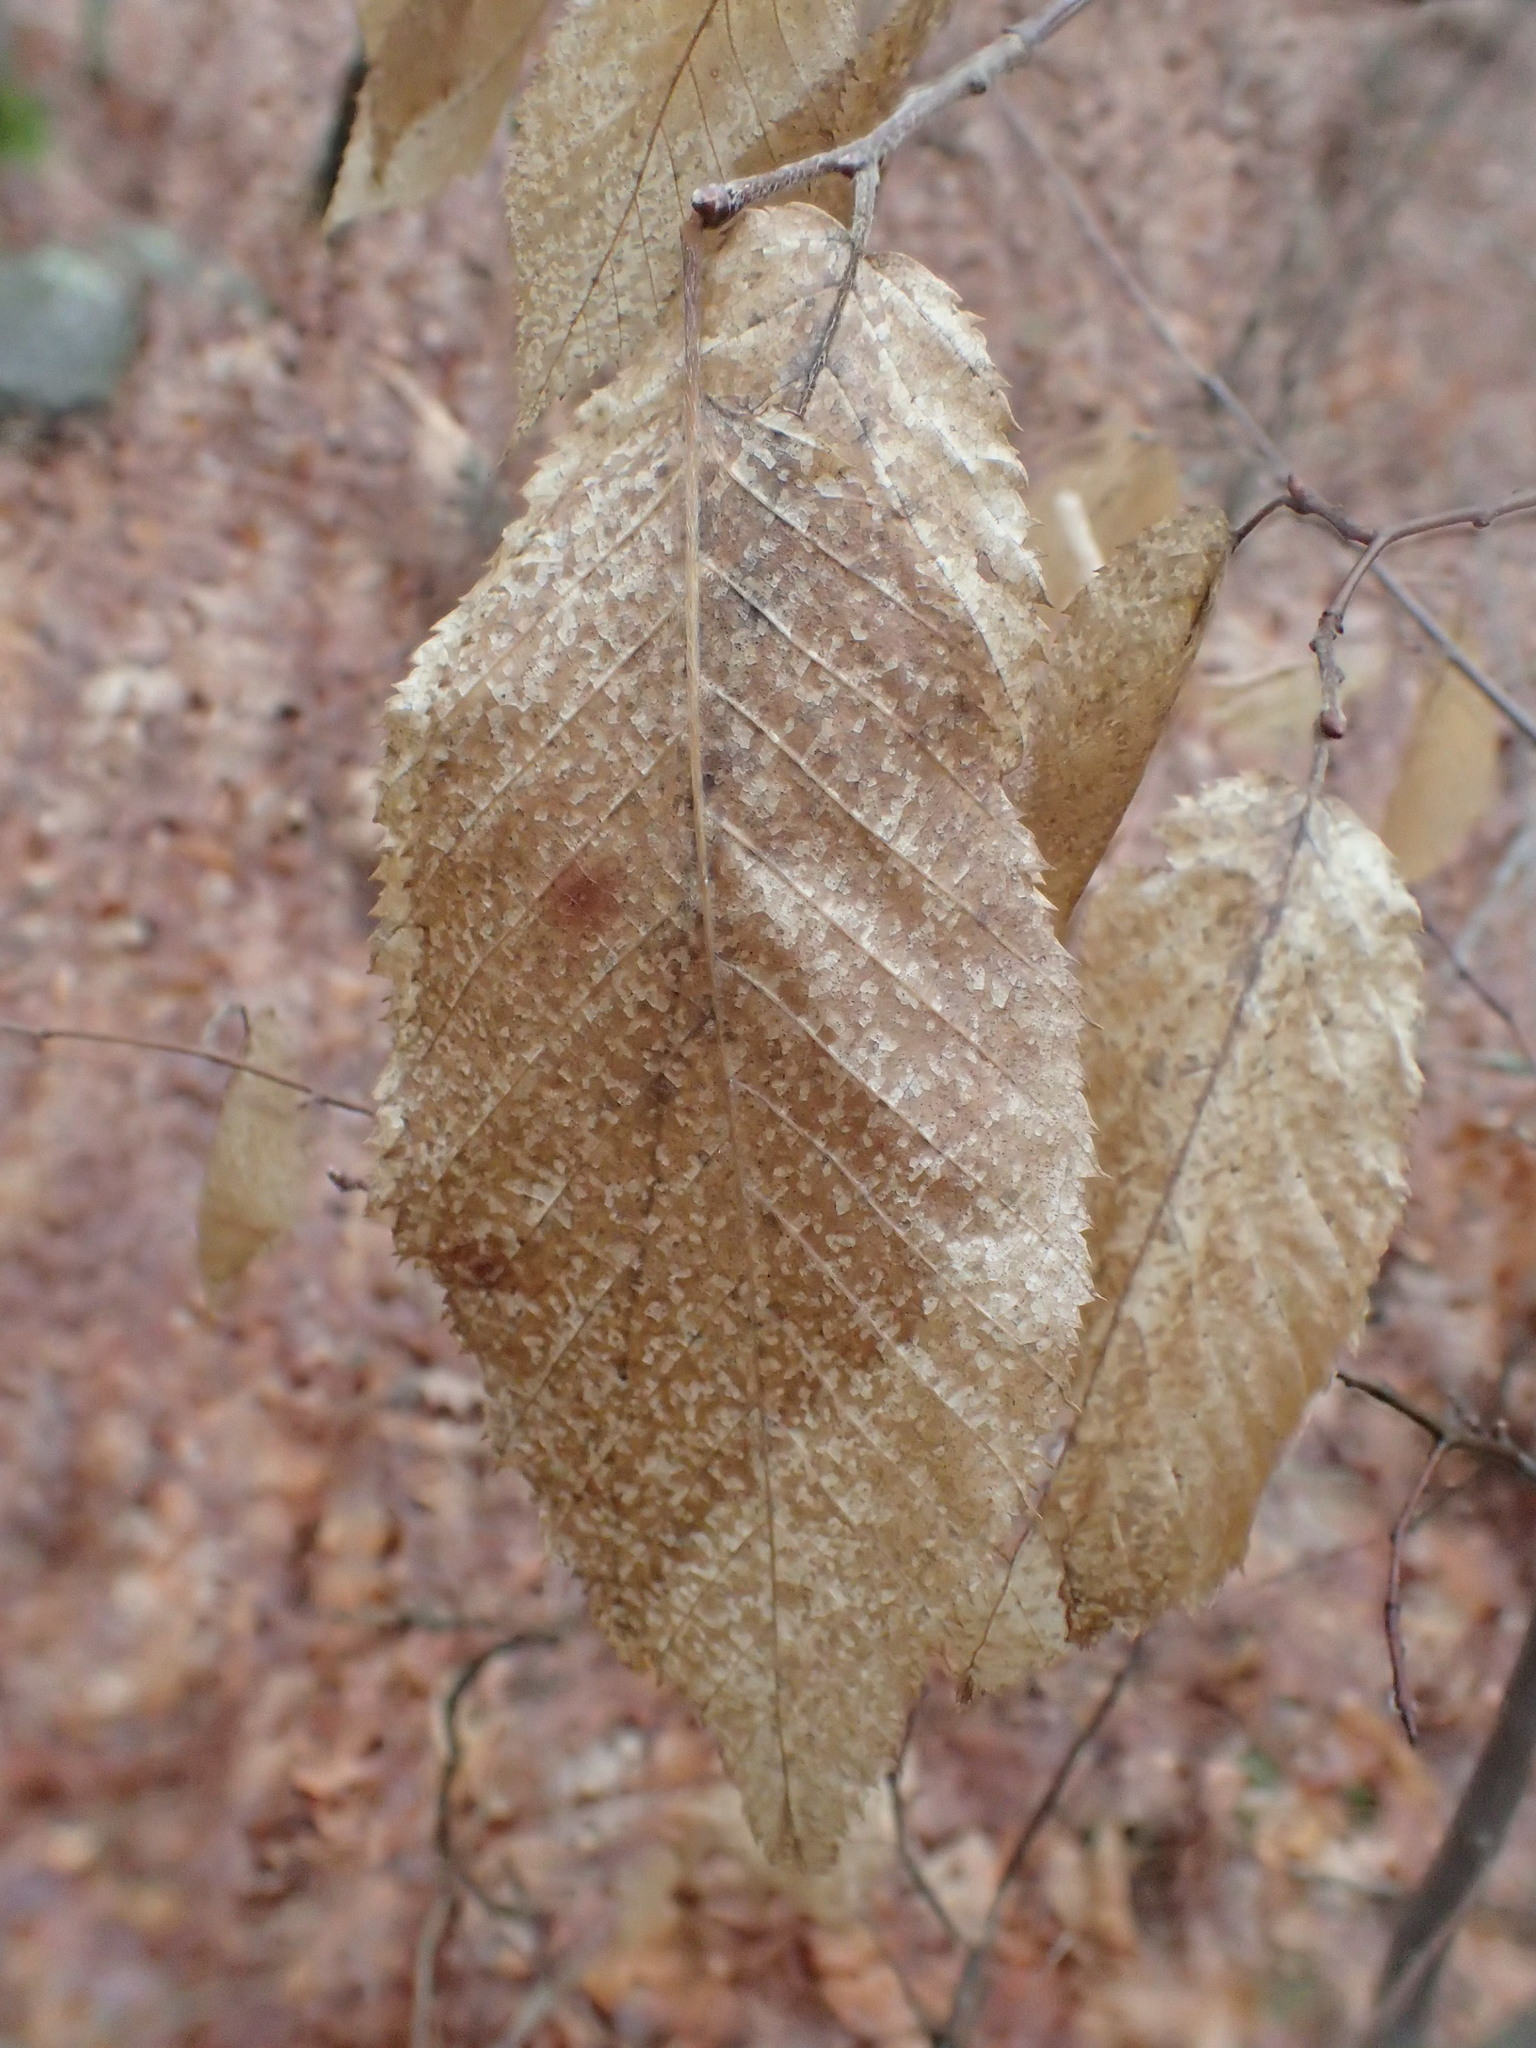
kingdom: Plantae
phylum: Tracheophyta
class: Magnoliopsida
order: Fagales
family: Betulaceae
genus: Carpinus
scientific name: Carpinus caroliniana
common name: American hornbeam
